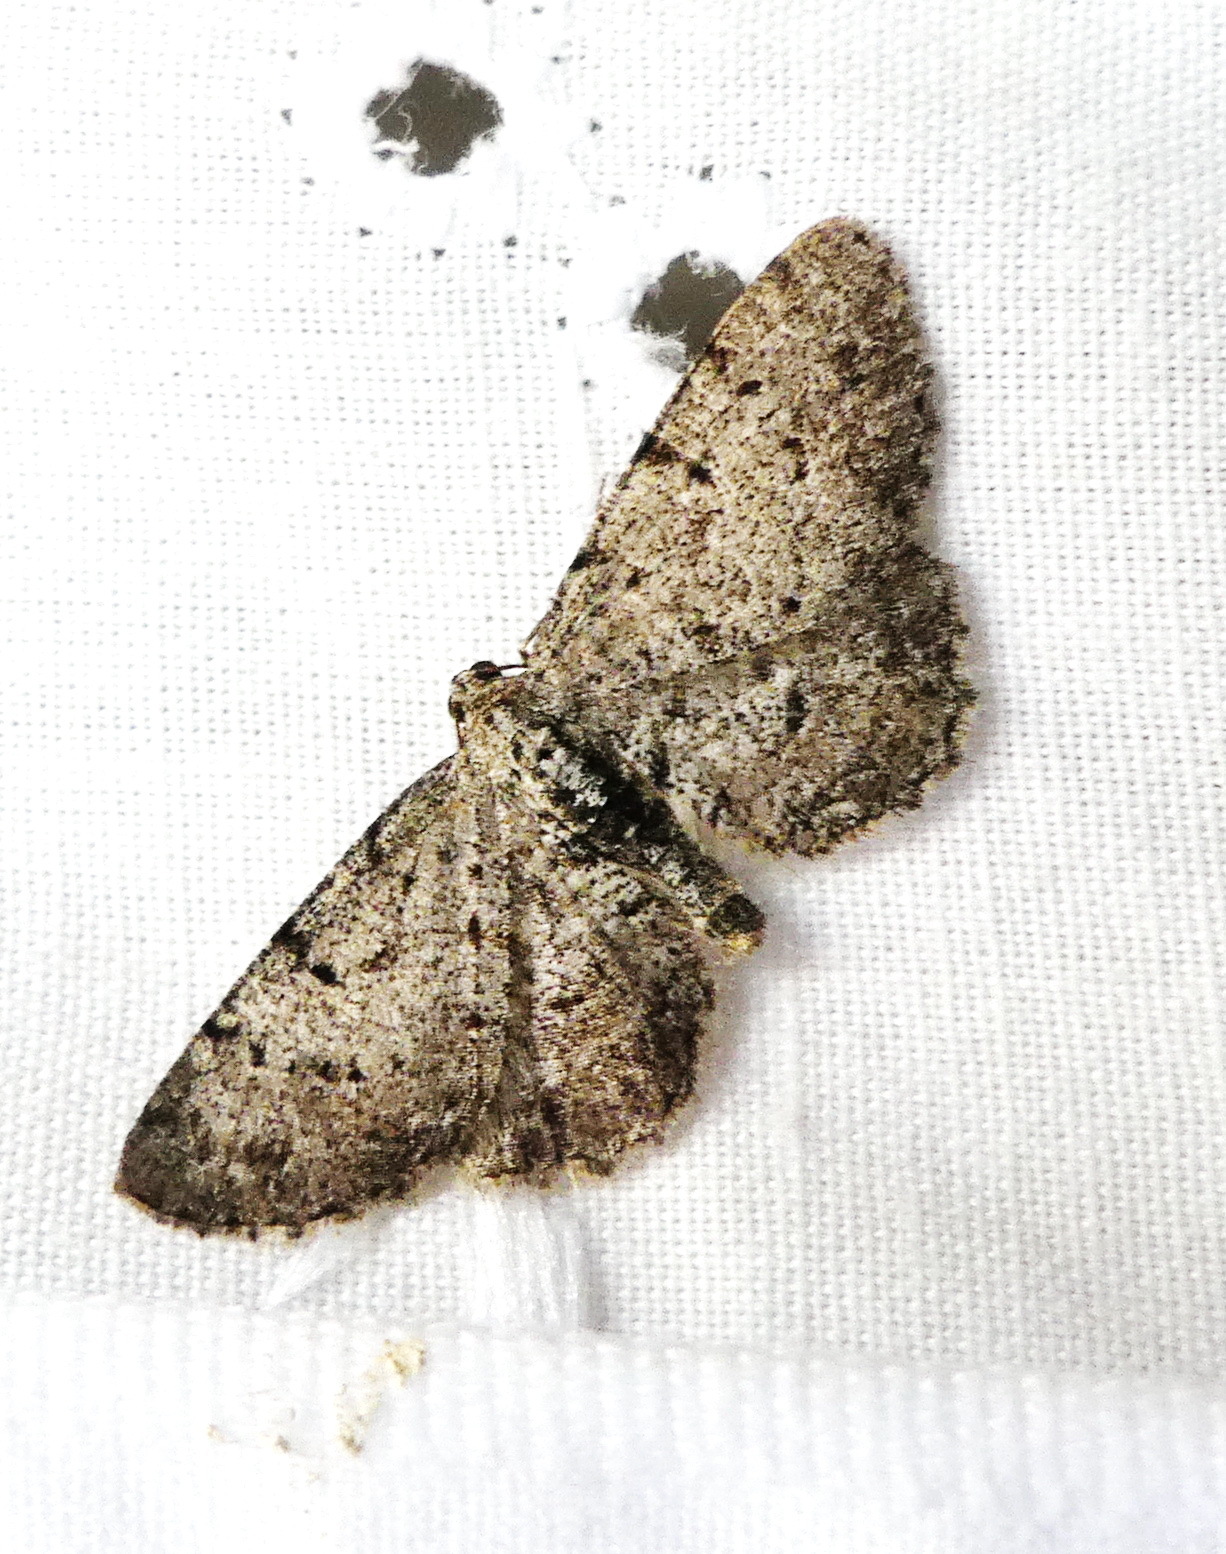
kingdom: Animalia
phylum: Arthropoda
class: Insecta
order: Lepidoptera
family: Geometridae
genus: Aethalura
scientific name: Aethalura intertexta
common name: Four-barred gray
